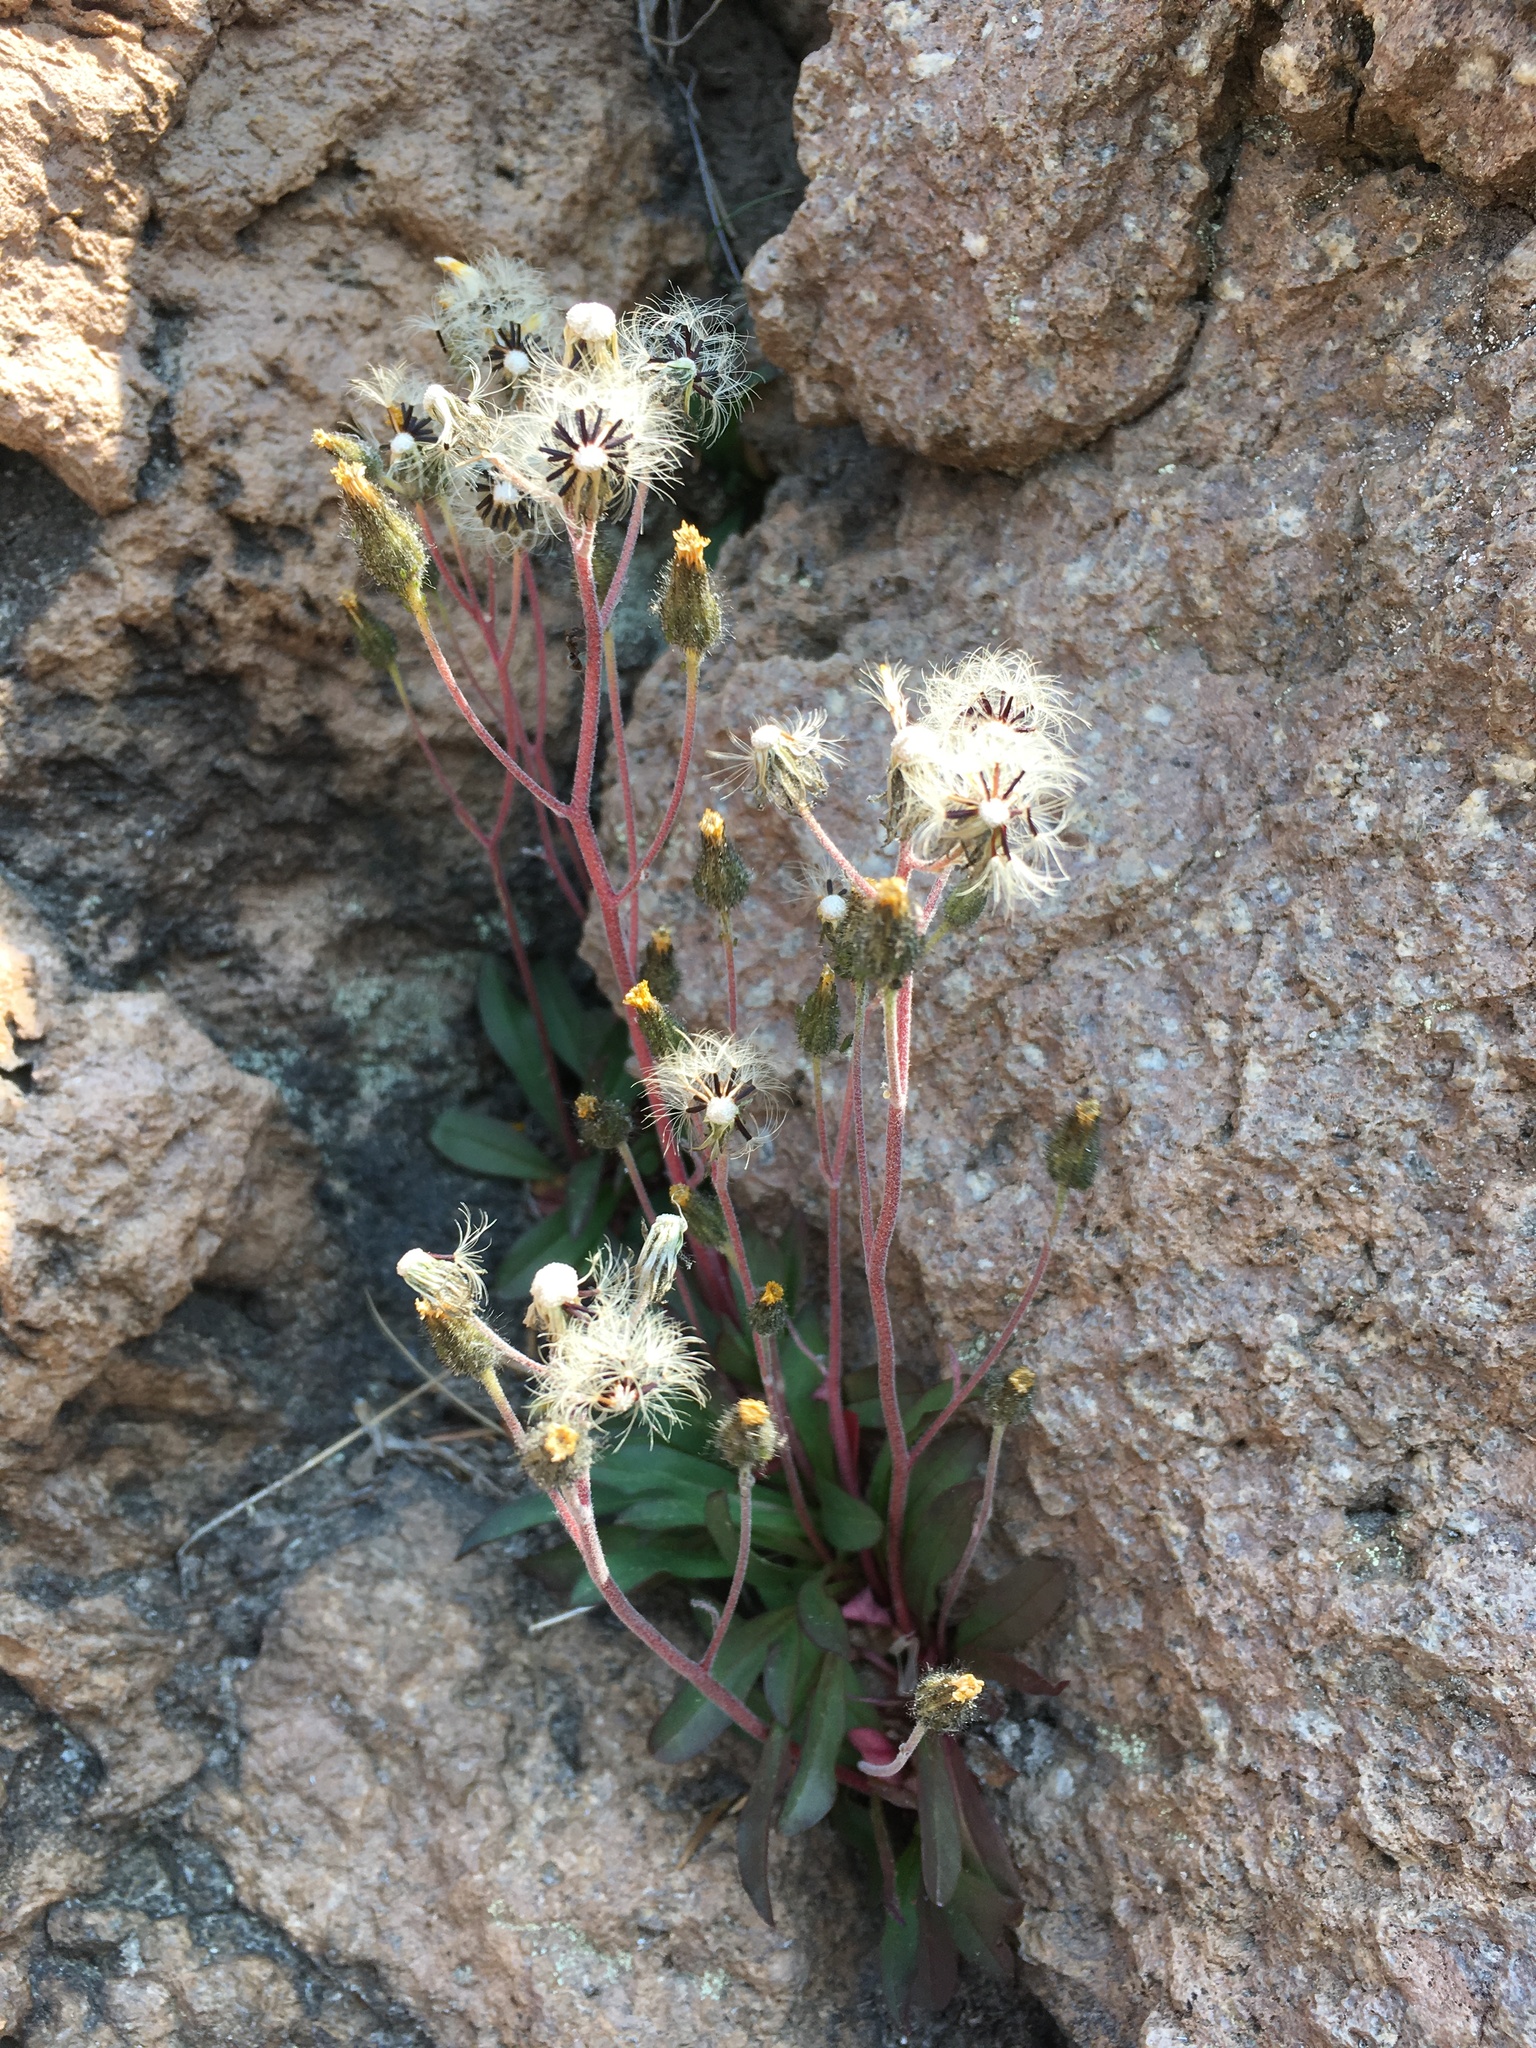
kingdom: Plantae
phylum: Tracheophyta
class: Magnoliopsida
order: Asterales
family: Asteraceae
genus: Hieracium
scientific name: Hieracium triste
